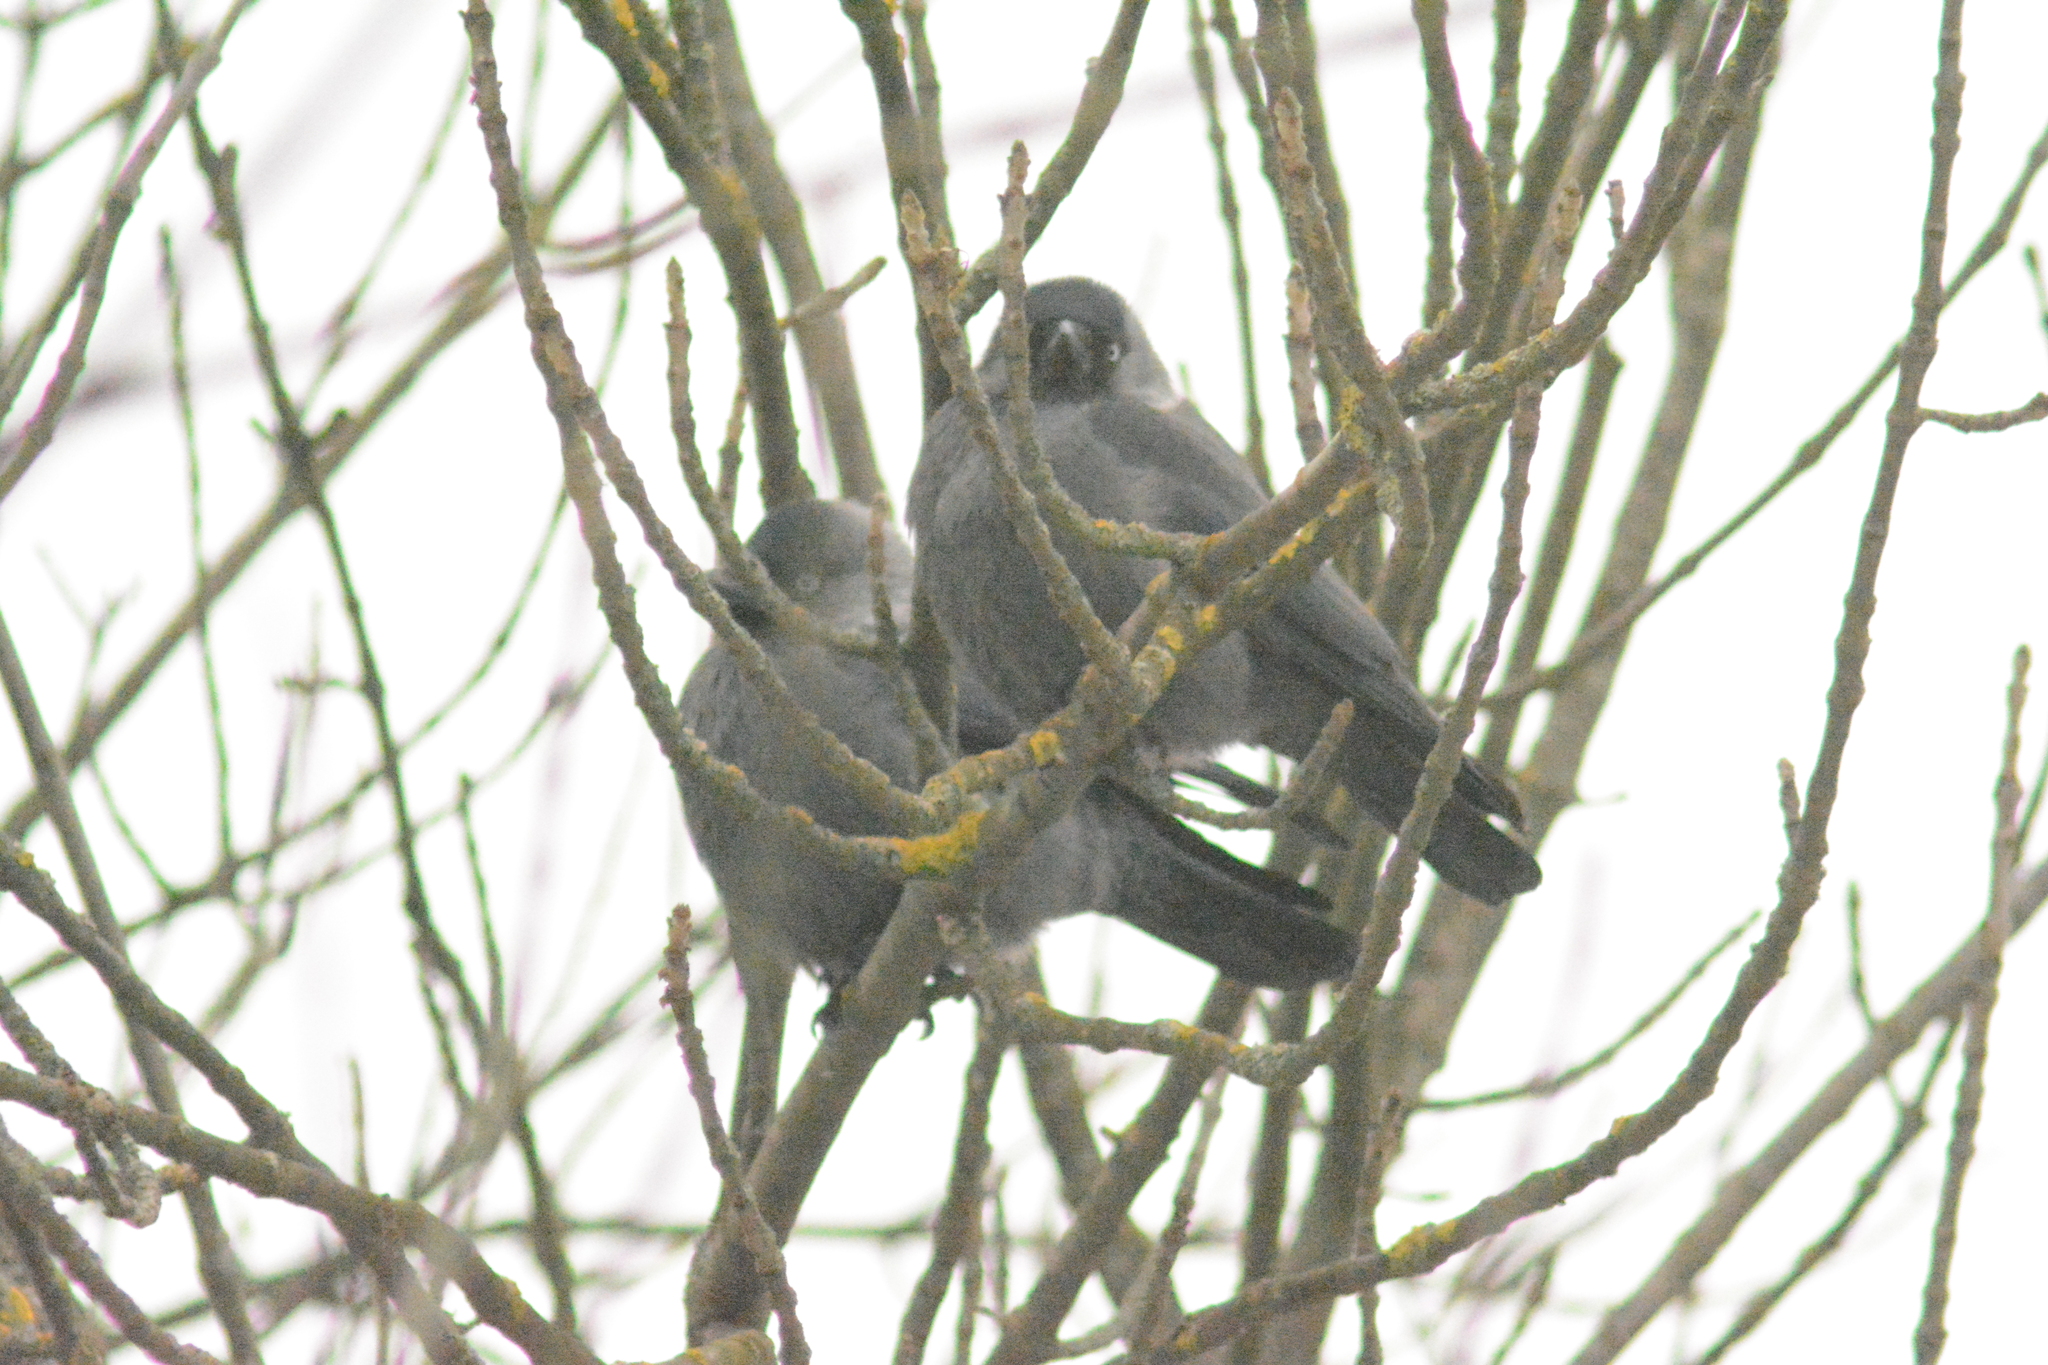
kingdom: Animalia
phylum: Chordata
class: Aves
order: Passeriformes
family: Corvidae
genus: Coloeus
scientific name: Coloeus monedula
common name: Western jackdaw
